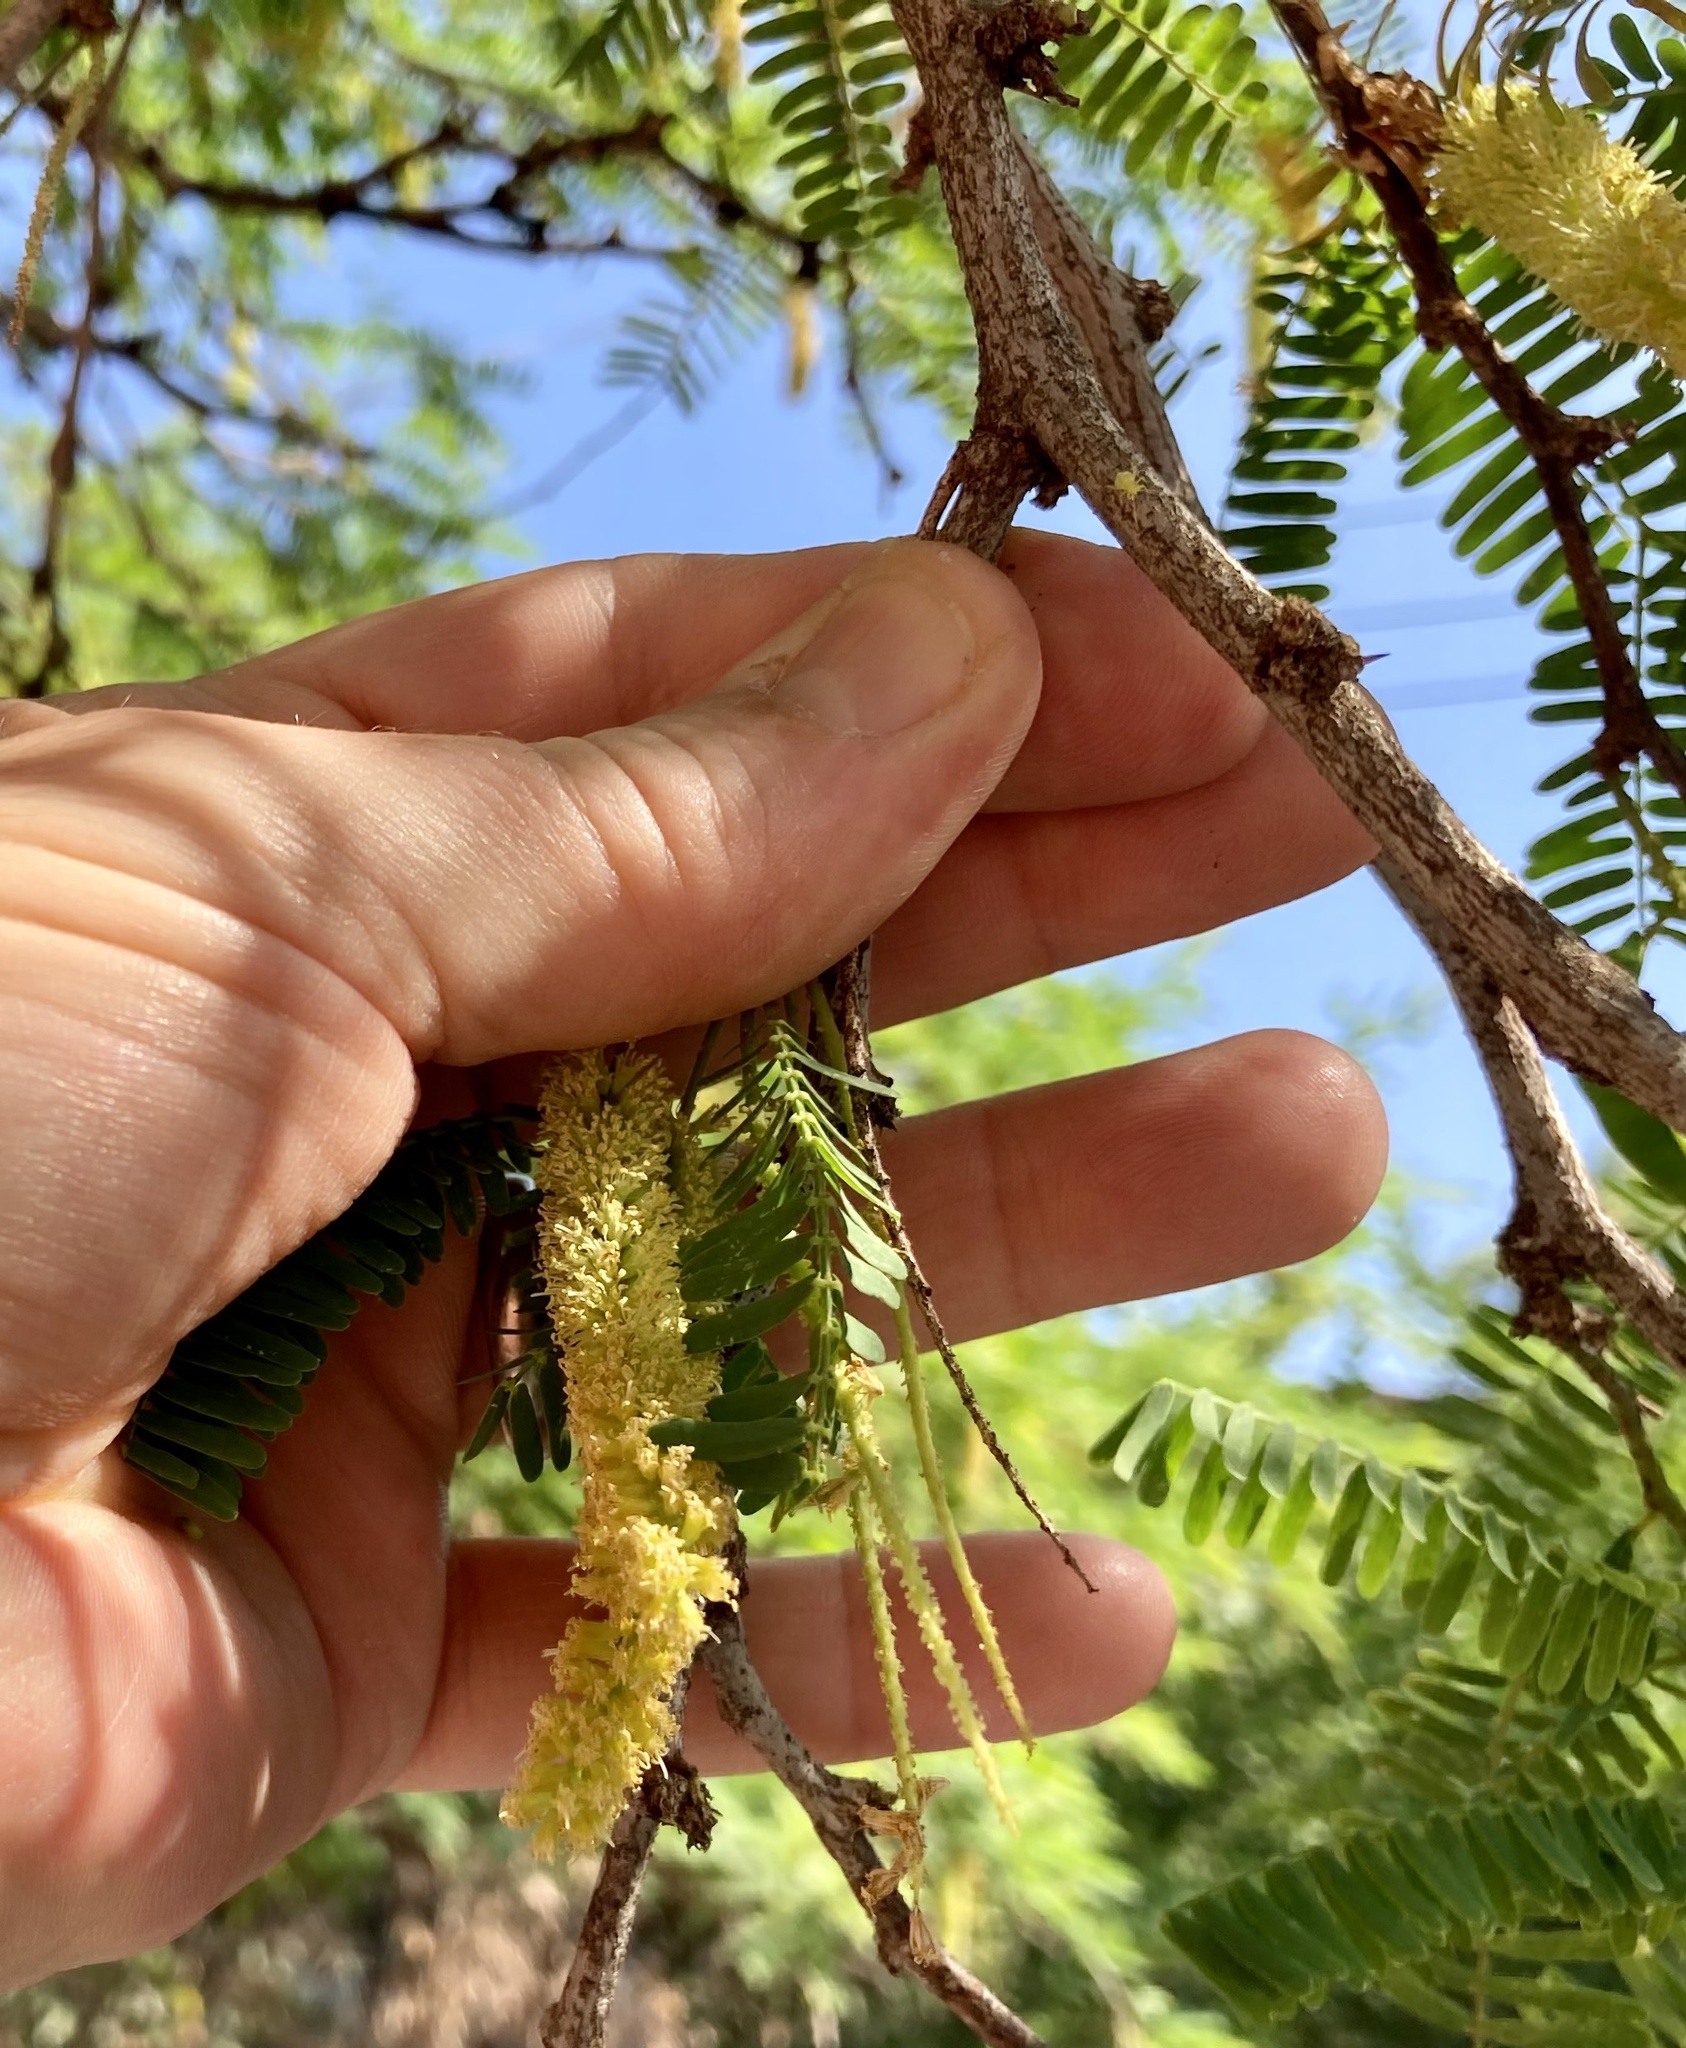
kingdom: Plantae
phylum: Tracheophyta
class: Magnoliopsida
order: Fabales
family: Fabaceae
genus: Prosopis
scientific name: Prosopis juliflora
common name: Mesquite
